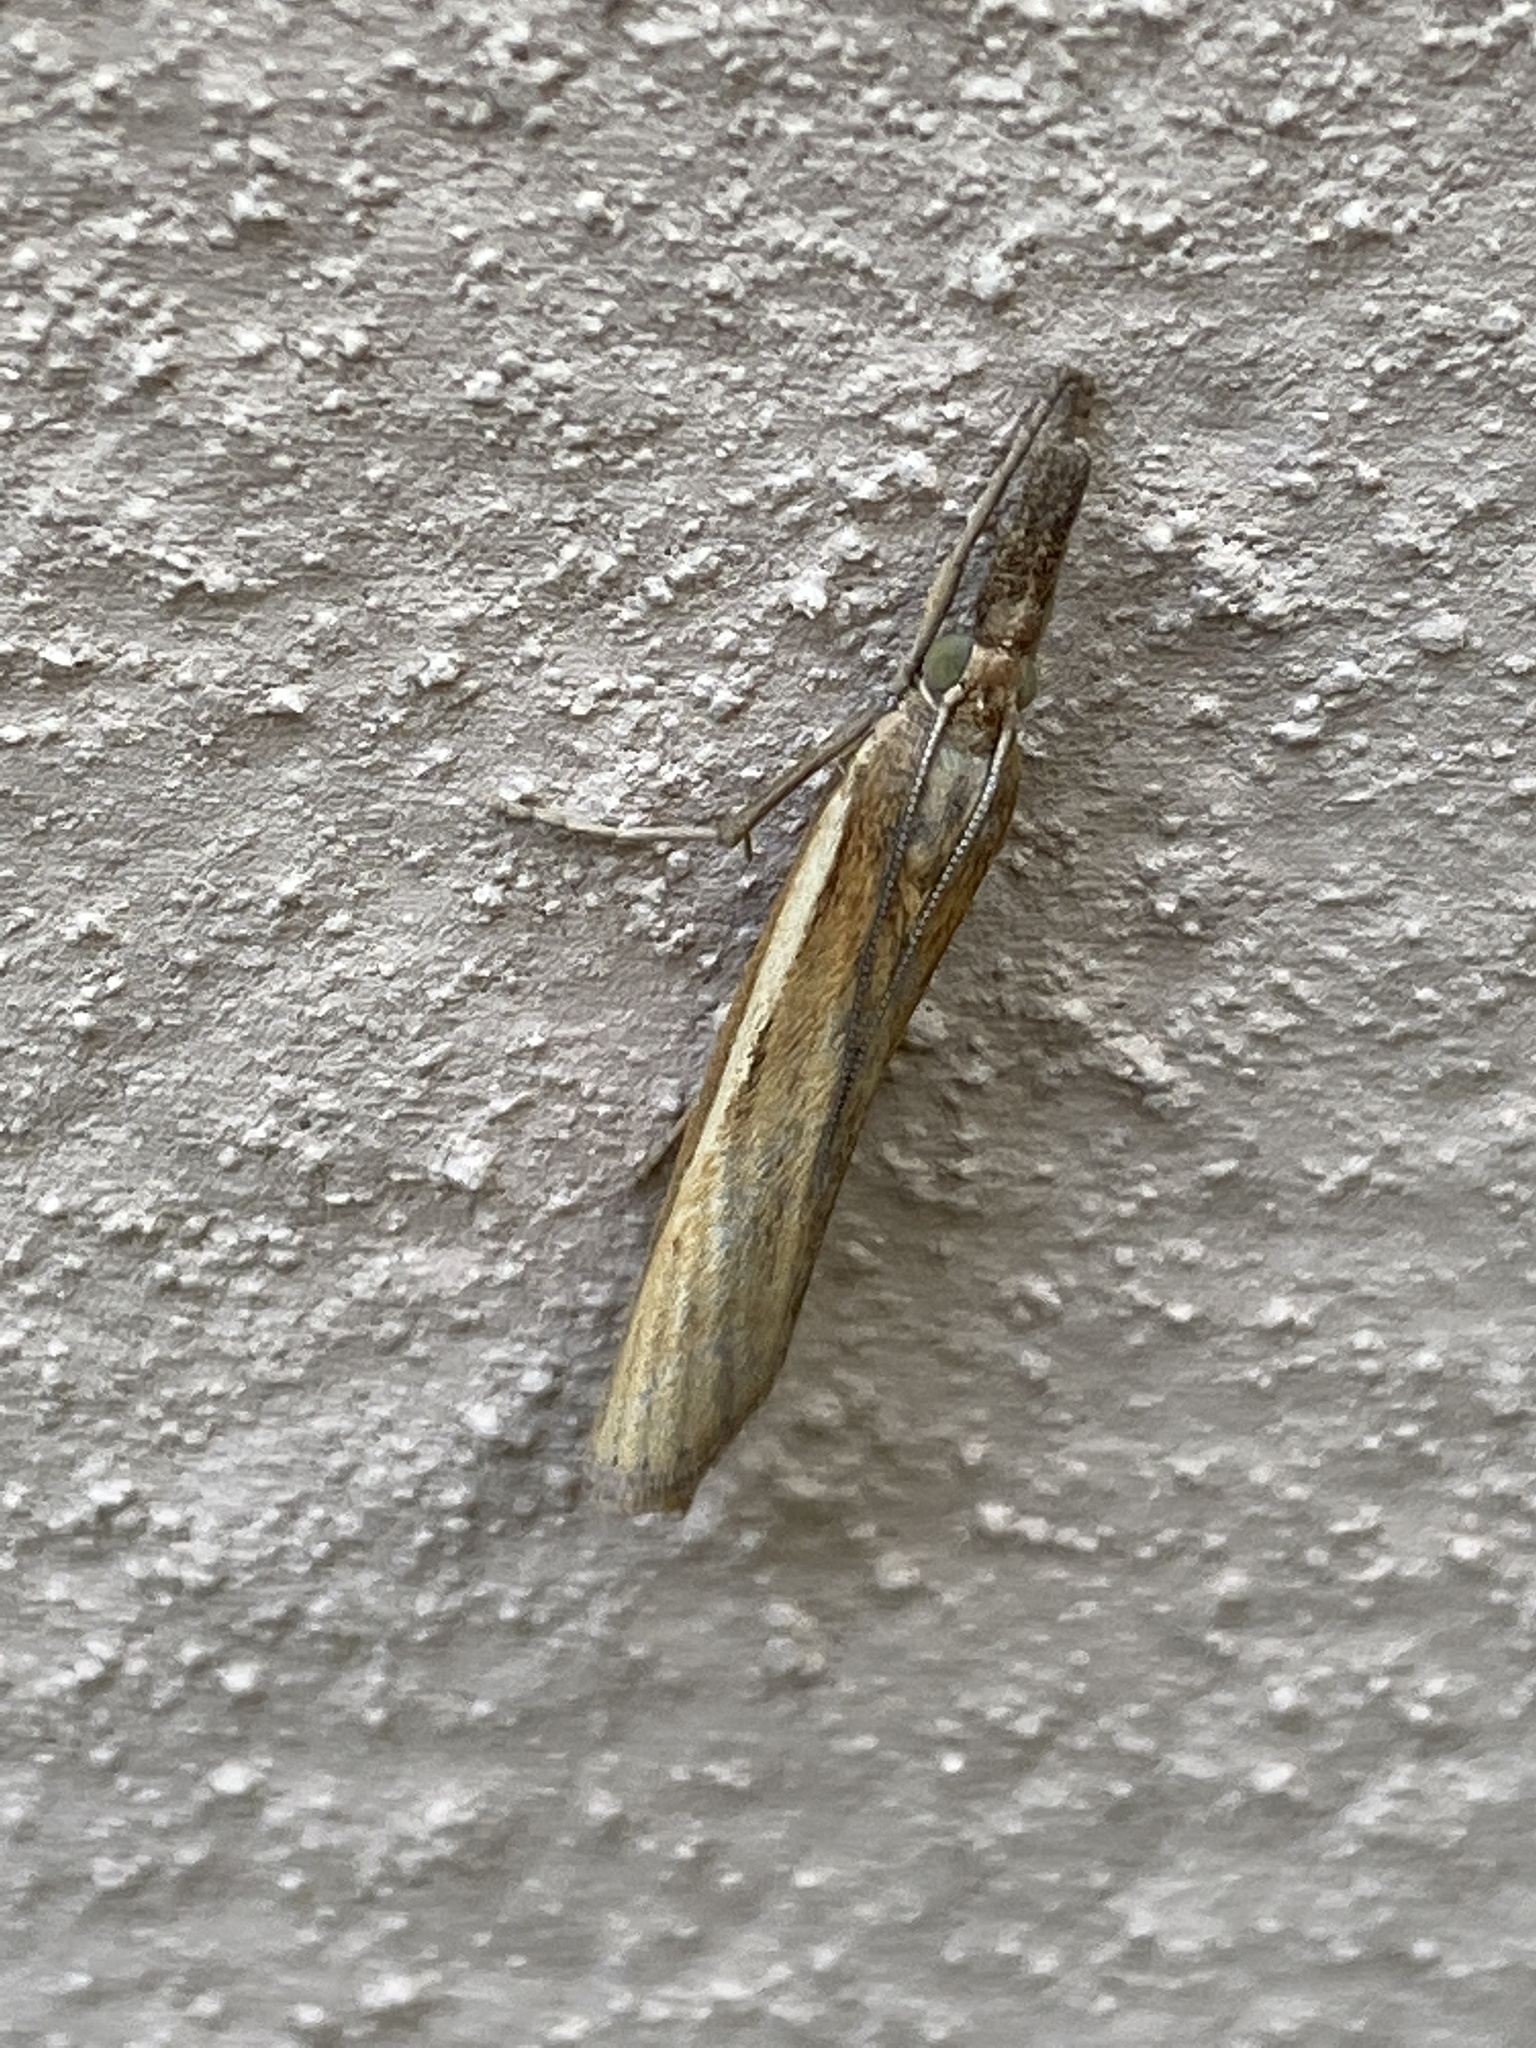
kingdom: Animalia
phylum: Arthropoda
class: Insecta
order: Lepidoptera
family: Crambidae
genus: Agriphila
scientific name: Agriphila tristellus
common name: Common grass-veneer
